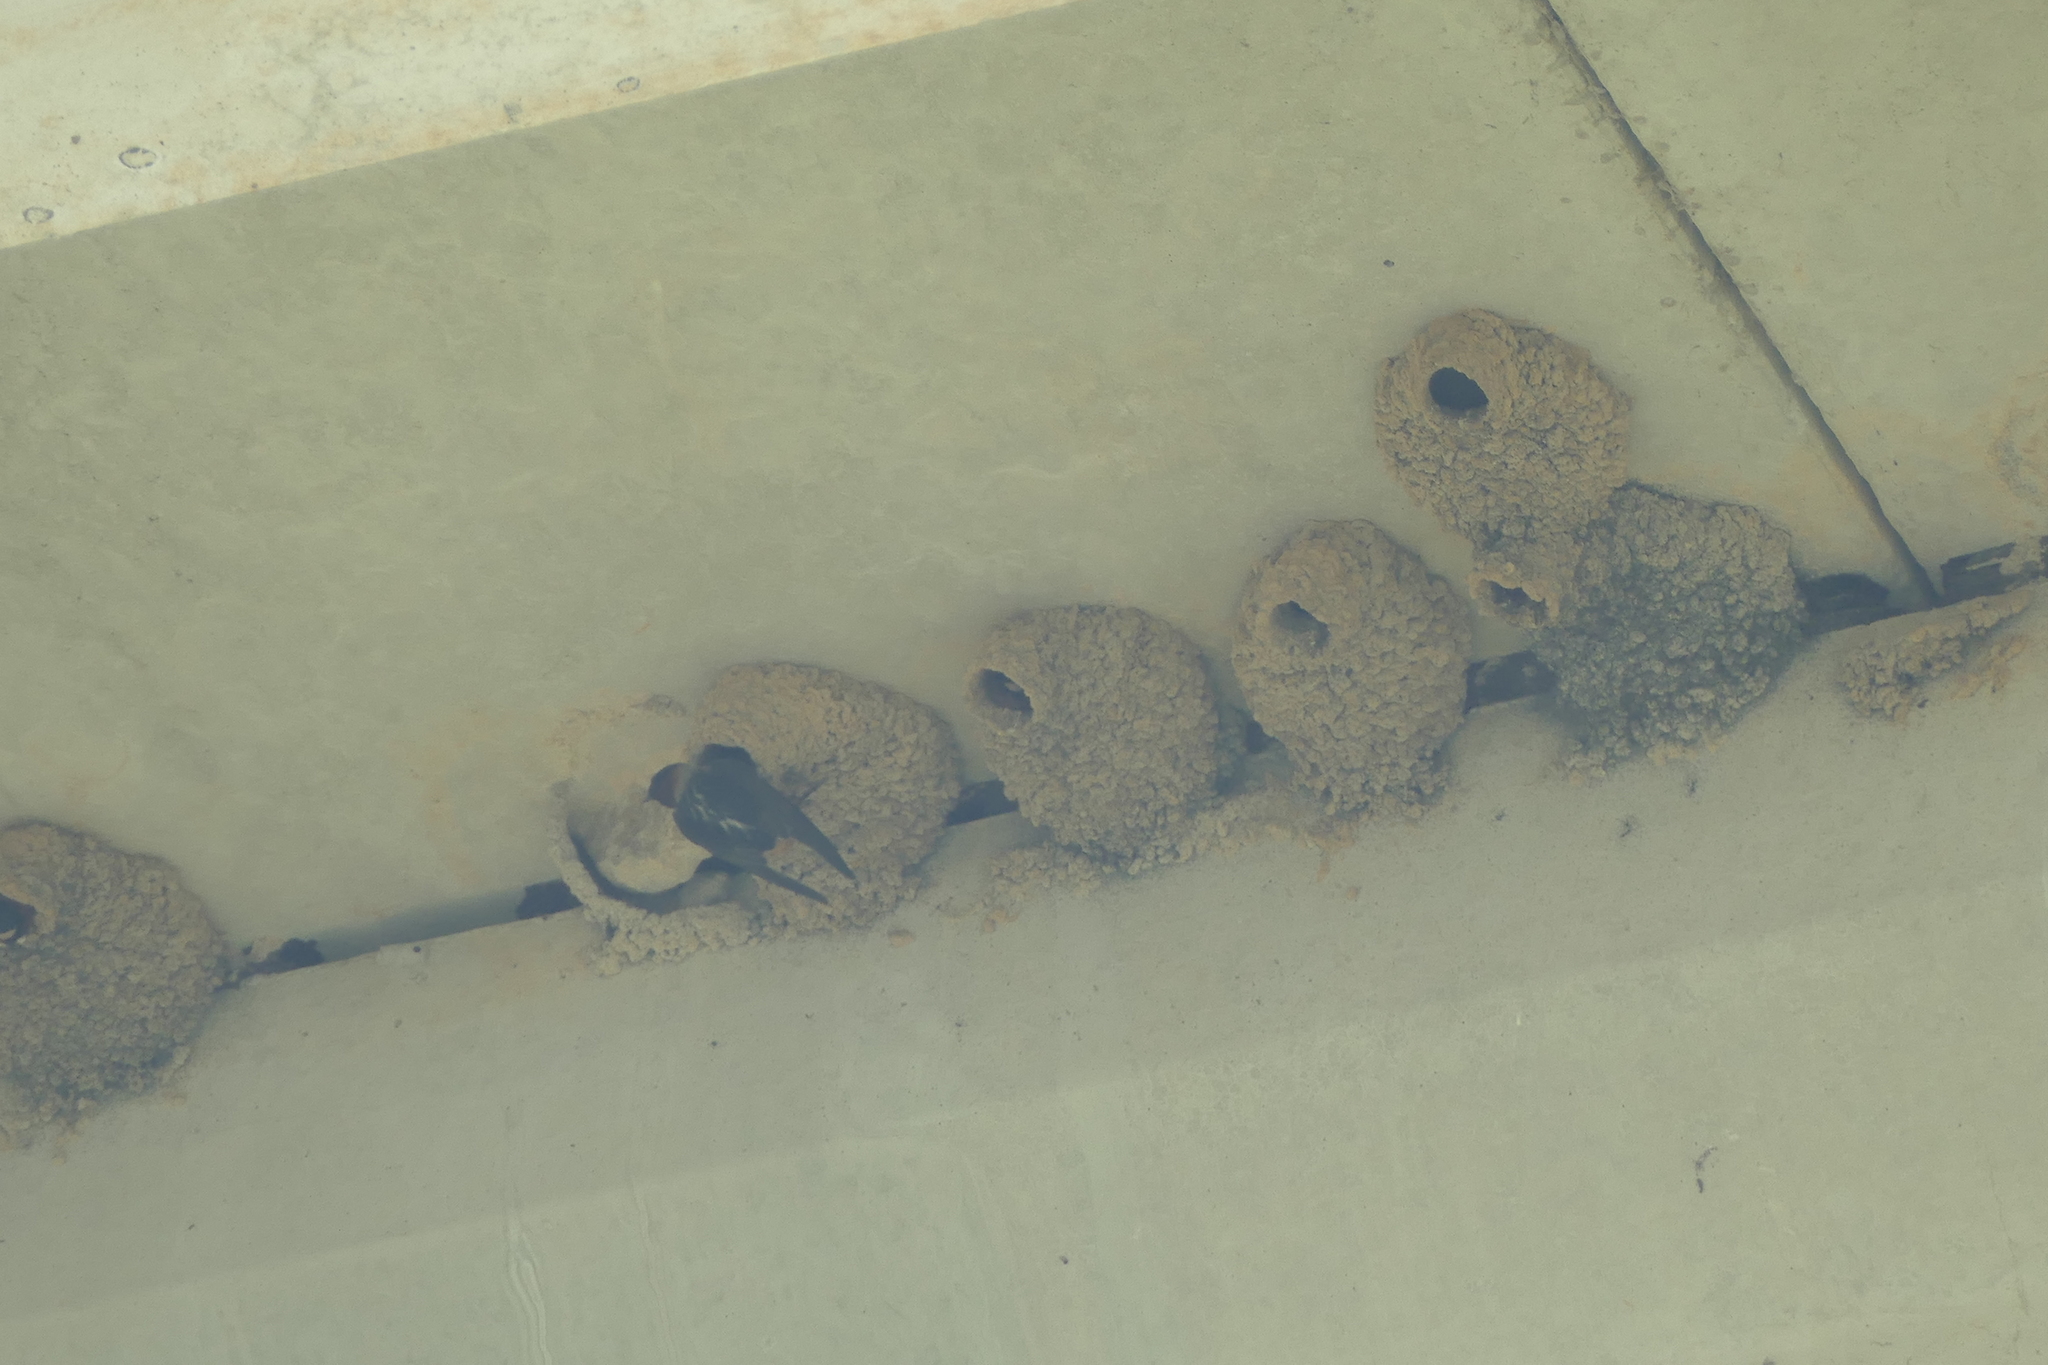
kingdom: Animalia
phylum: Chordata
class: Aves
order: Passeriformes
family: Hirundinidae
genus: Petrochelidon
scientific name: Petrochelidon pyrrhonota
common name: American cliff swallow
